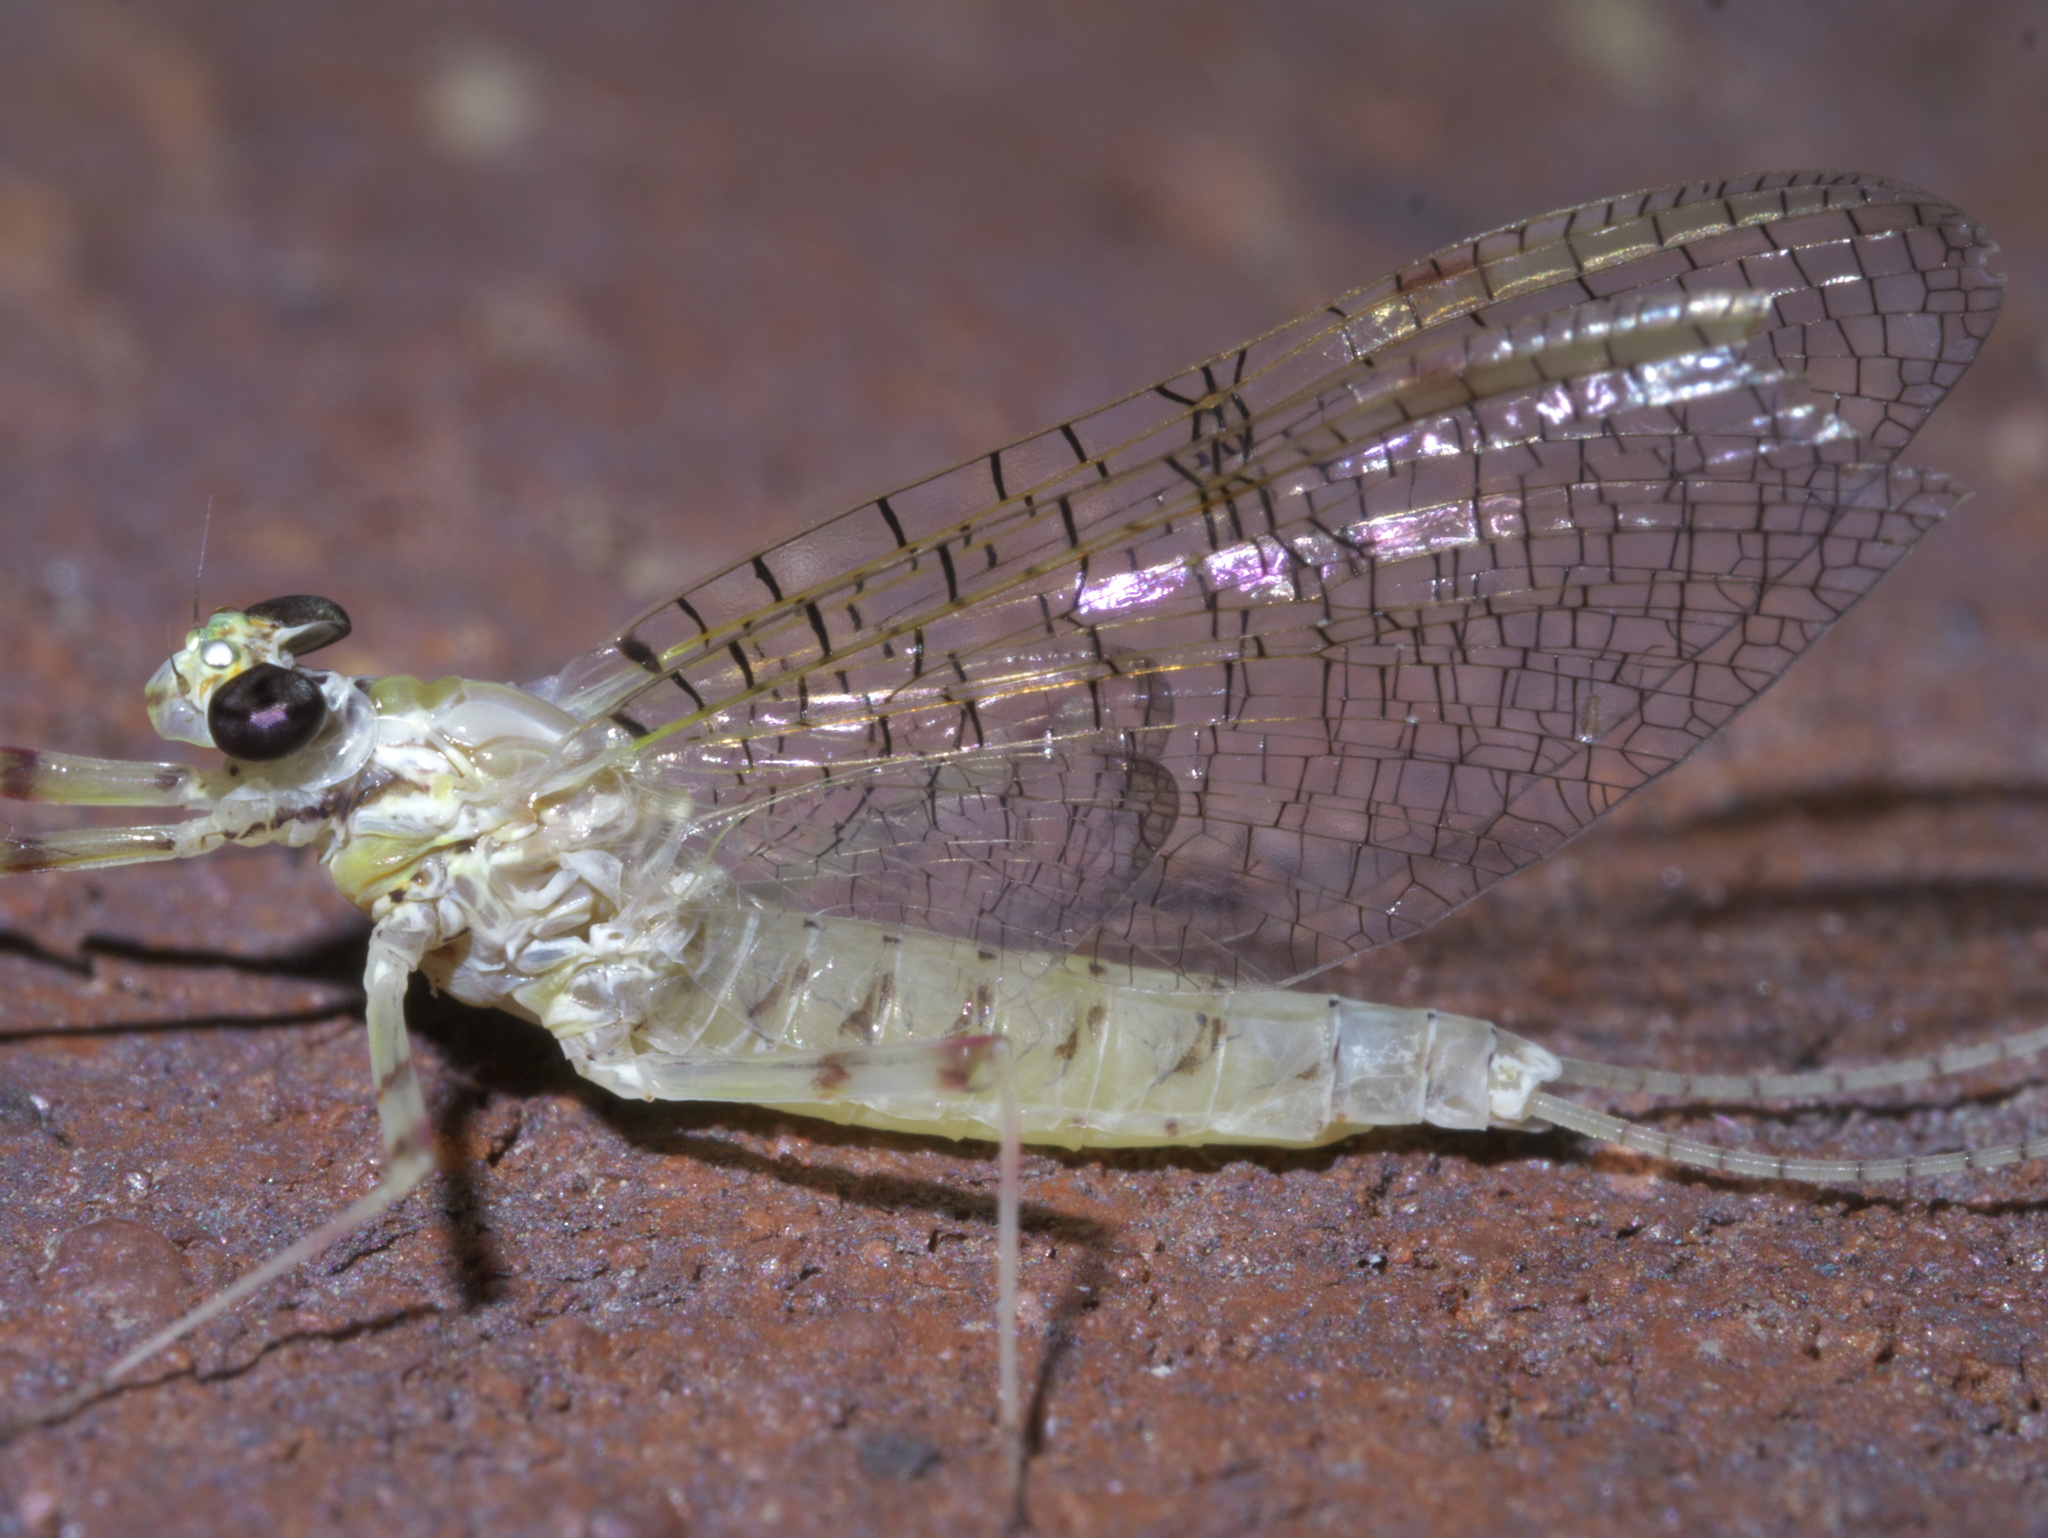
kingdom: Animalia
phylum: Arthropoda
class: Insecta
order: Ephemeroptera
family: Heptageniidae
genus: Stenonema
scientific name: Stenonema femoratum
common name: Dark cahill
